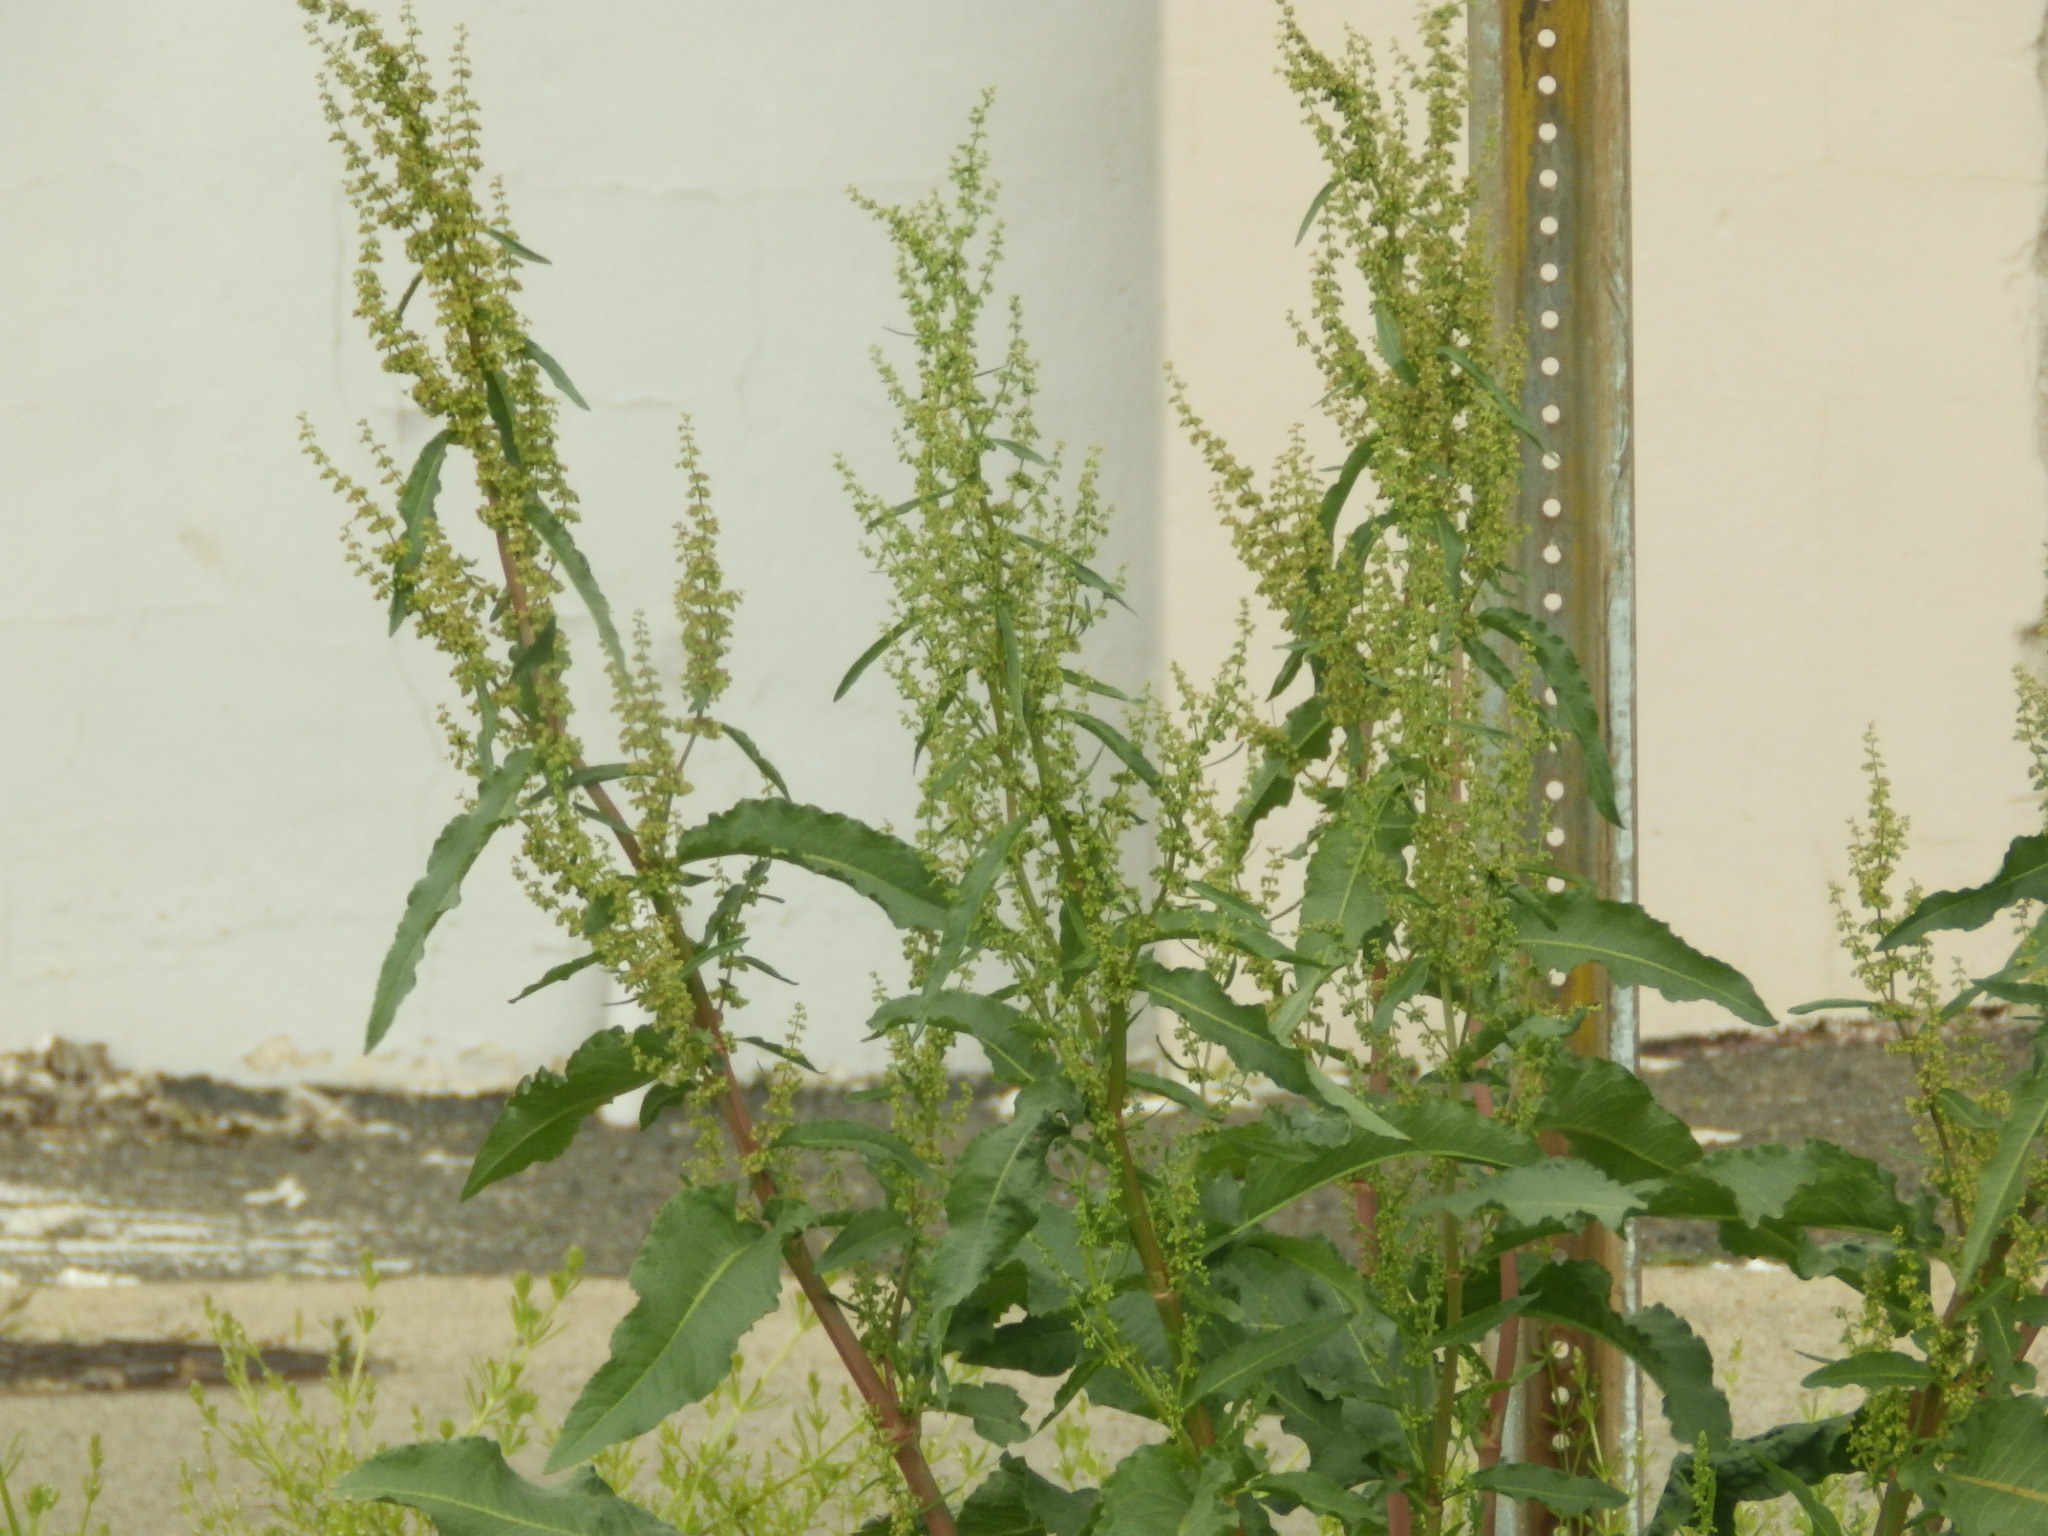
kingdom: Plantae
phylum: Tracheophyta
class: Magnoliopsida
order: Caryophyllales
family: Polygonaceae
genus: Rumex
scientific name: Rumex crispus
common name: Curled dock
